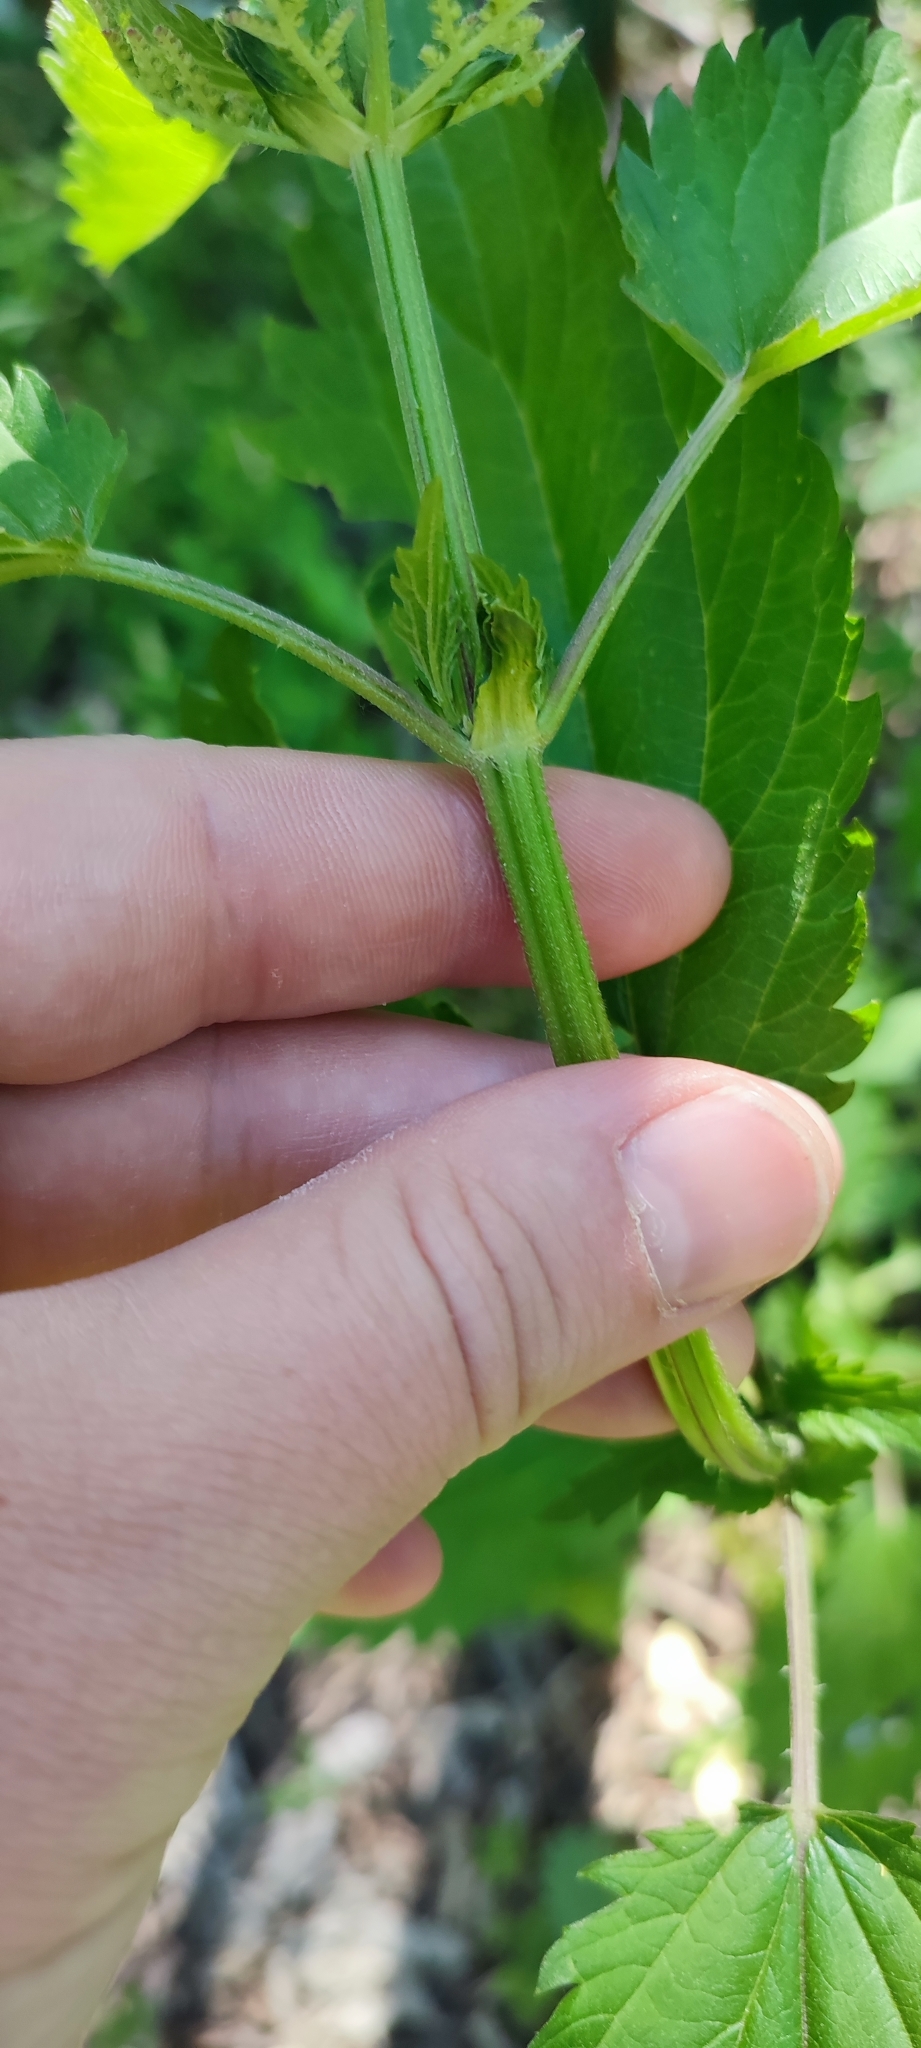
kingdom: Plantae
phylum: Tracheophyta
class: Magnoliopsida
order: Rosales
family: Urticaceae
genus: Urtica
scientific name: Urtica dioica
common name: Common nettle
